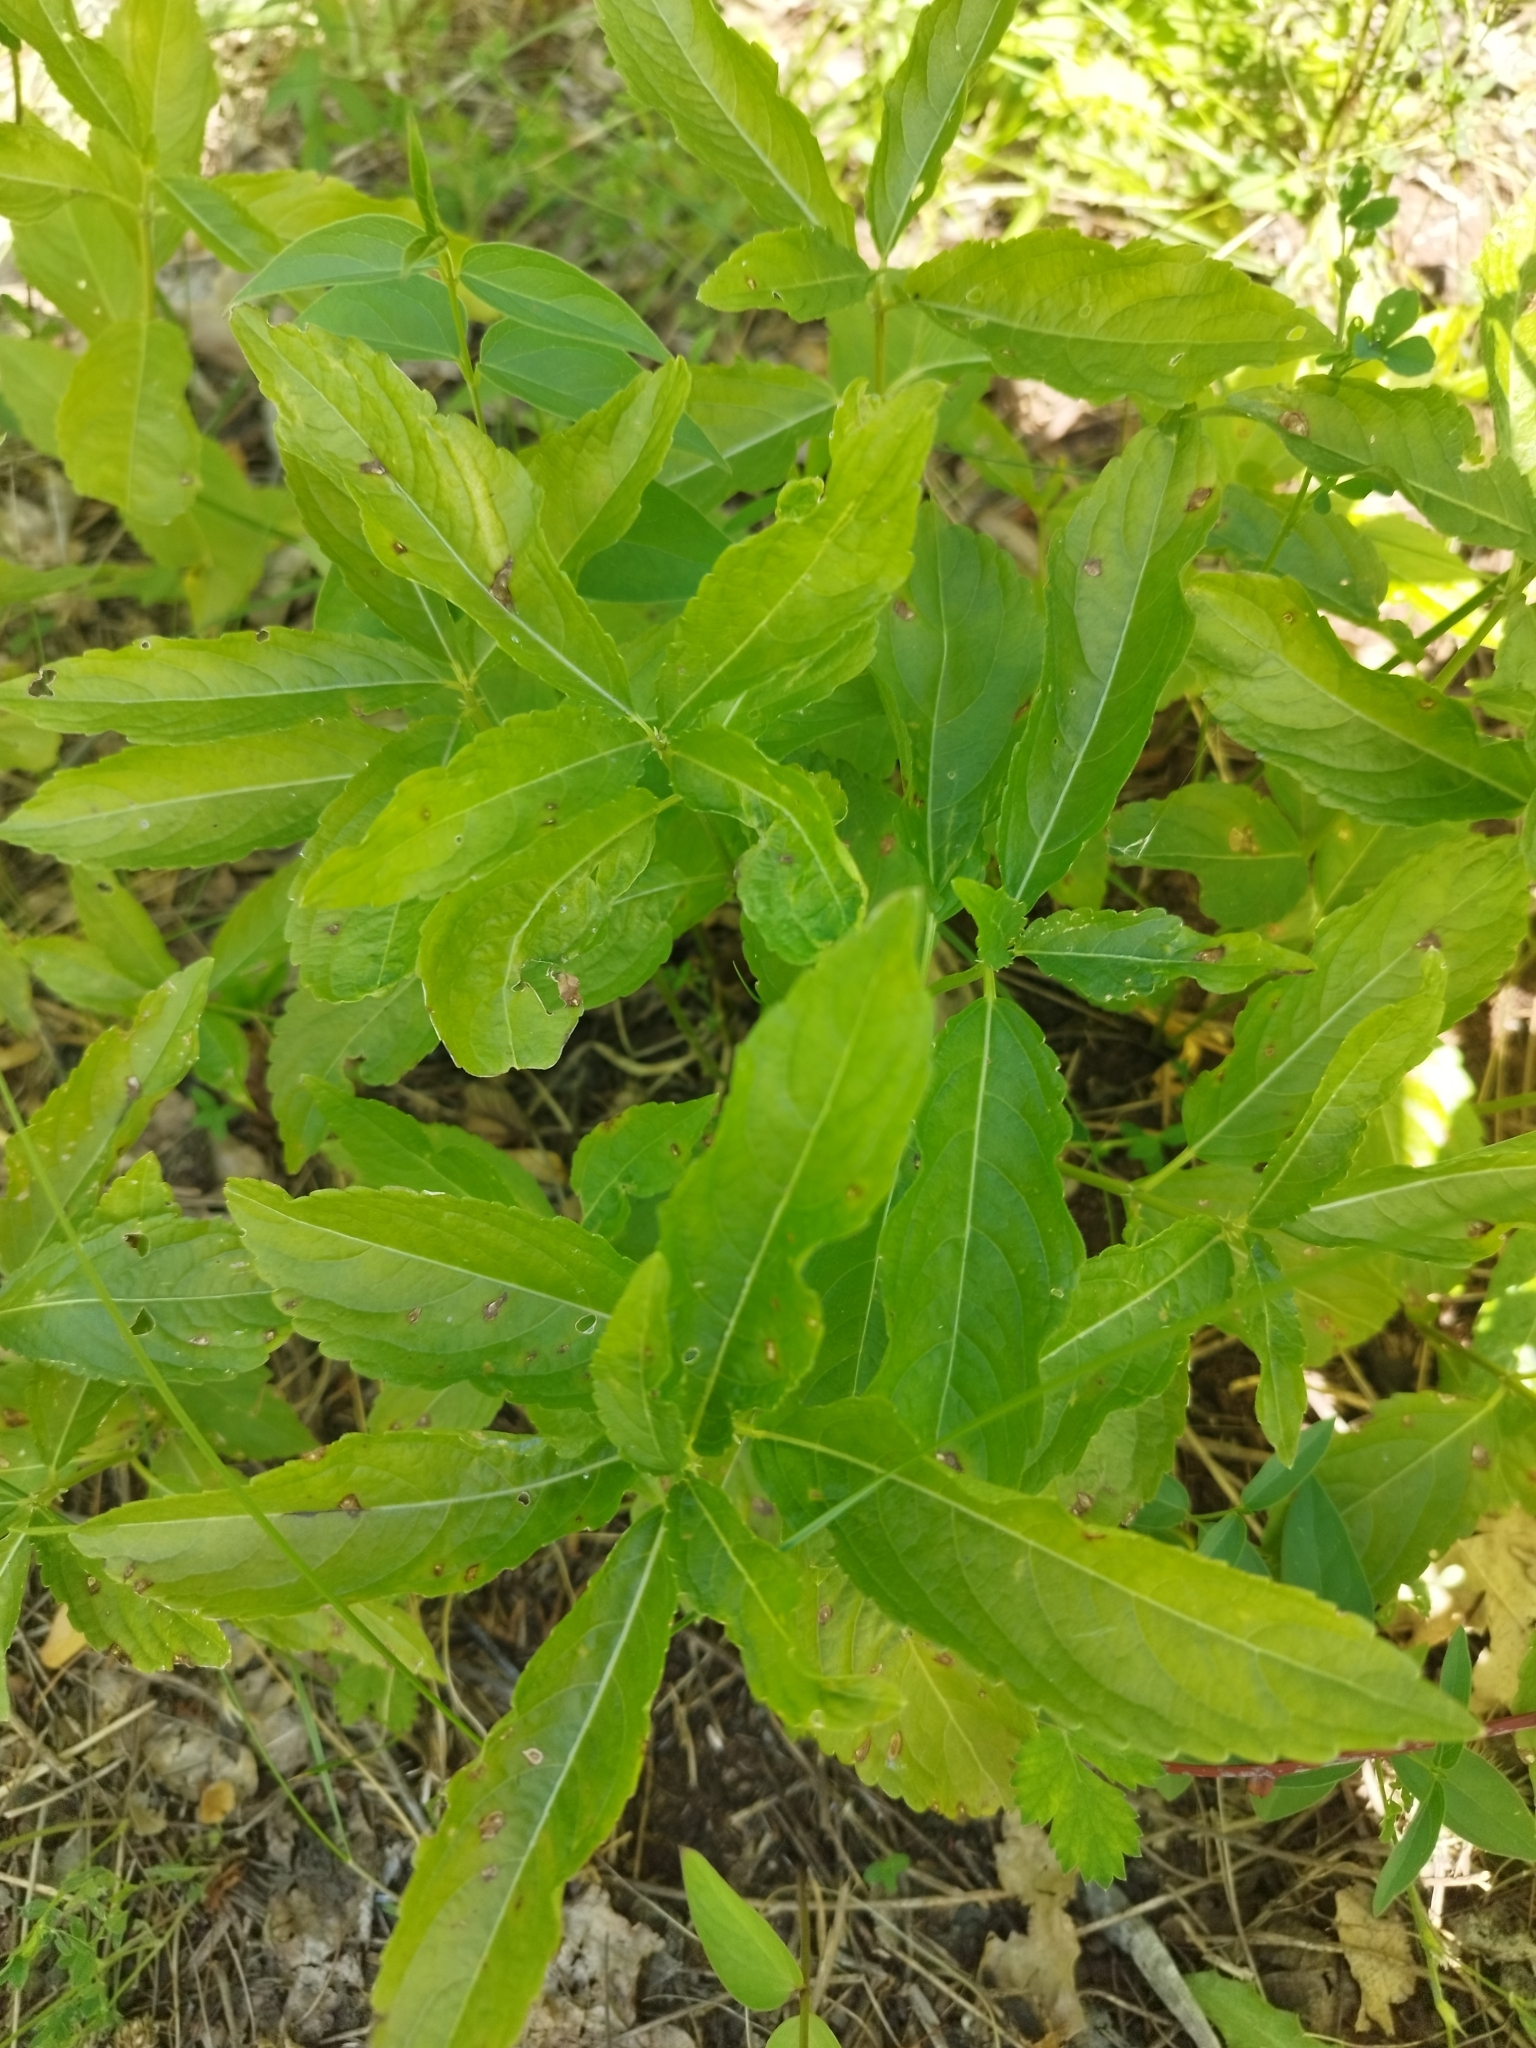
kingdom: Plantae
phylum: Tracheophyta
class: Magnoliopsida
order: Malpighiales
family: Euphorbiaceae
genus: Mercurialis
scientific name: Mercurialis perennis
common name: Dog mercury
